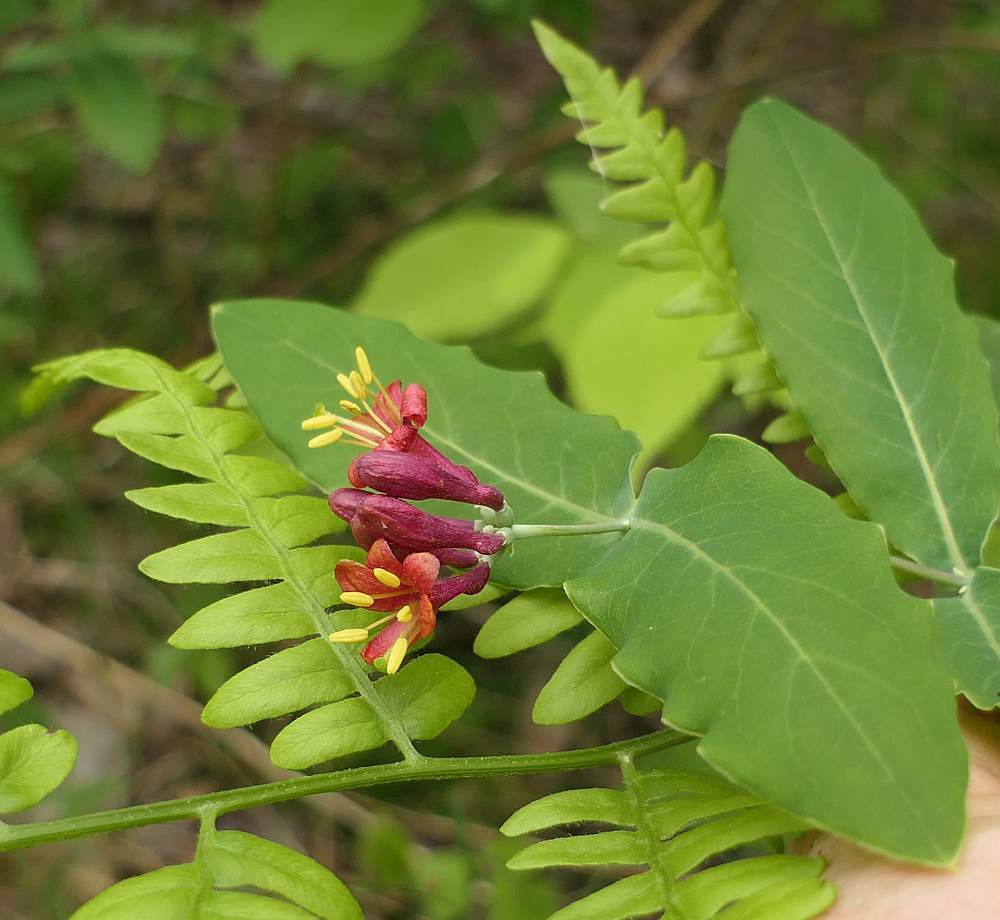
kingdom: Plantae
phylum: Tracheophyta
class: Magnoliopsida
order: Dipsacales
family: Caprifoliaceae
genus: Lonicera
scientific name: Lonicera dioica
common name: Limber honeysuckle
